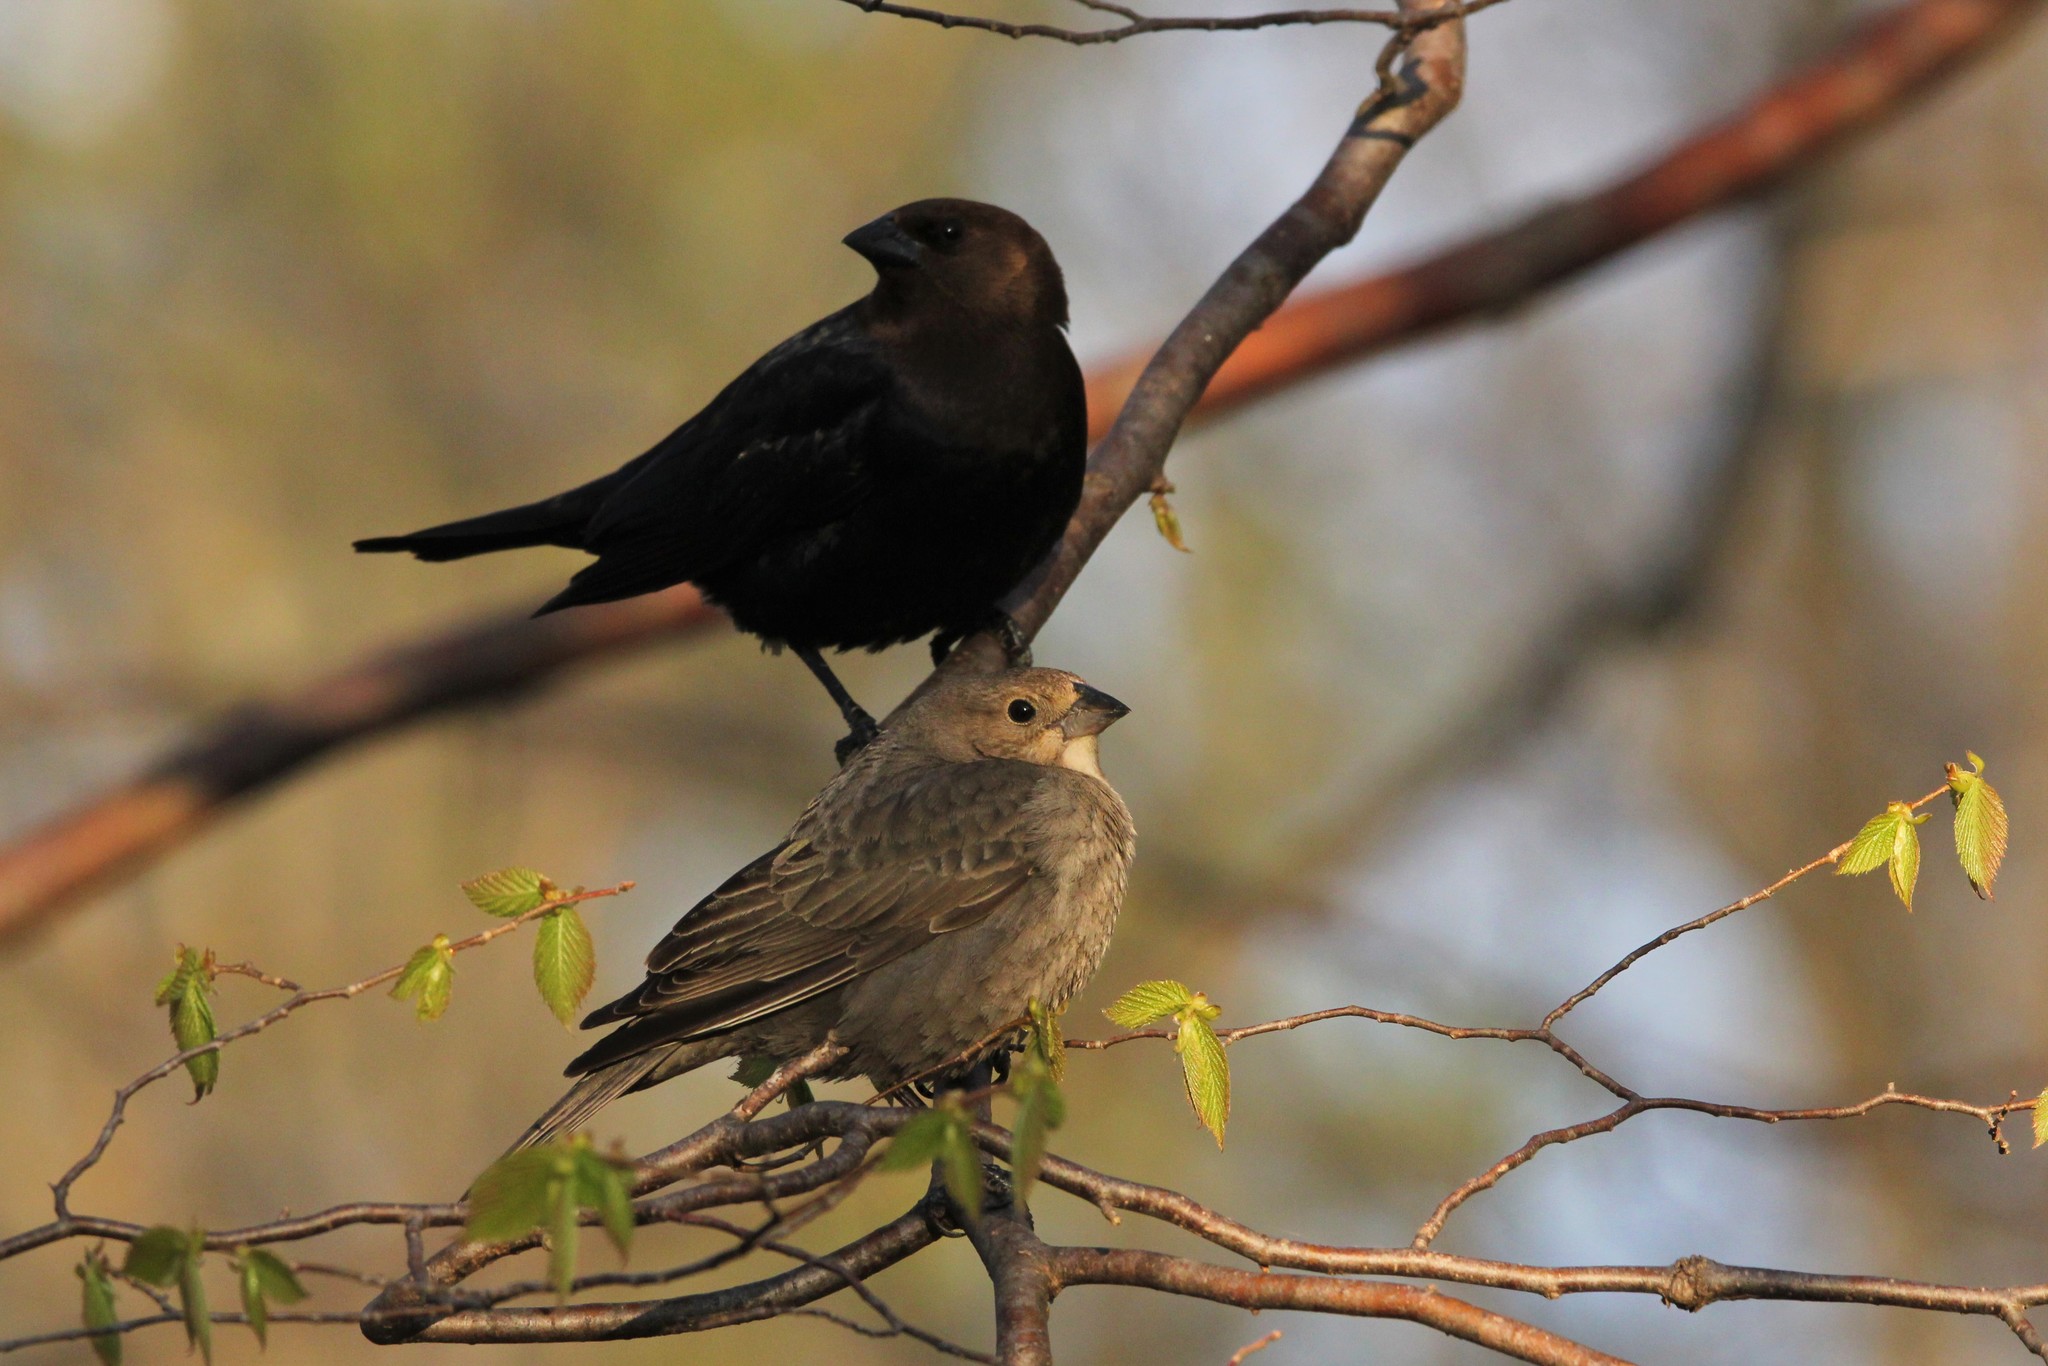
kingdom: Animalia
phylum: Chordata
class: Aves
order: Passeriformes
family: Icteridae
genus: Molothrus
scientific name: Molothrus ater
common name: Brown-headed cowbird
